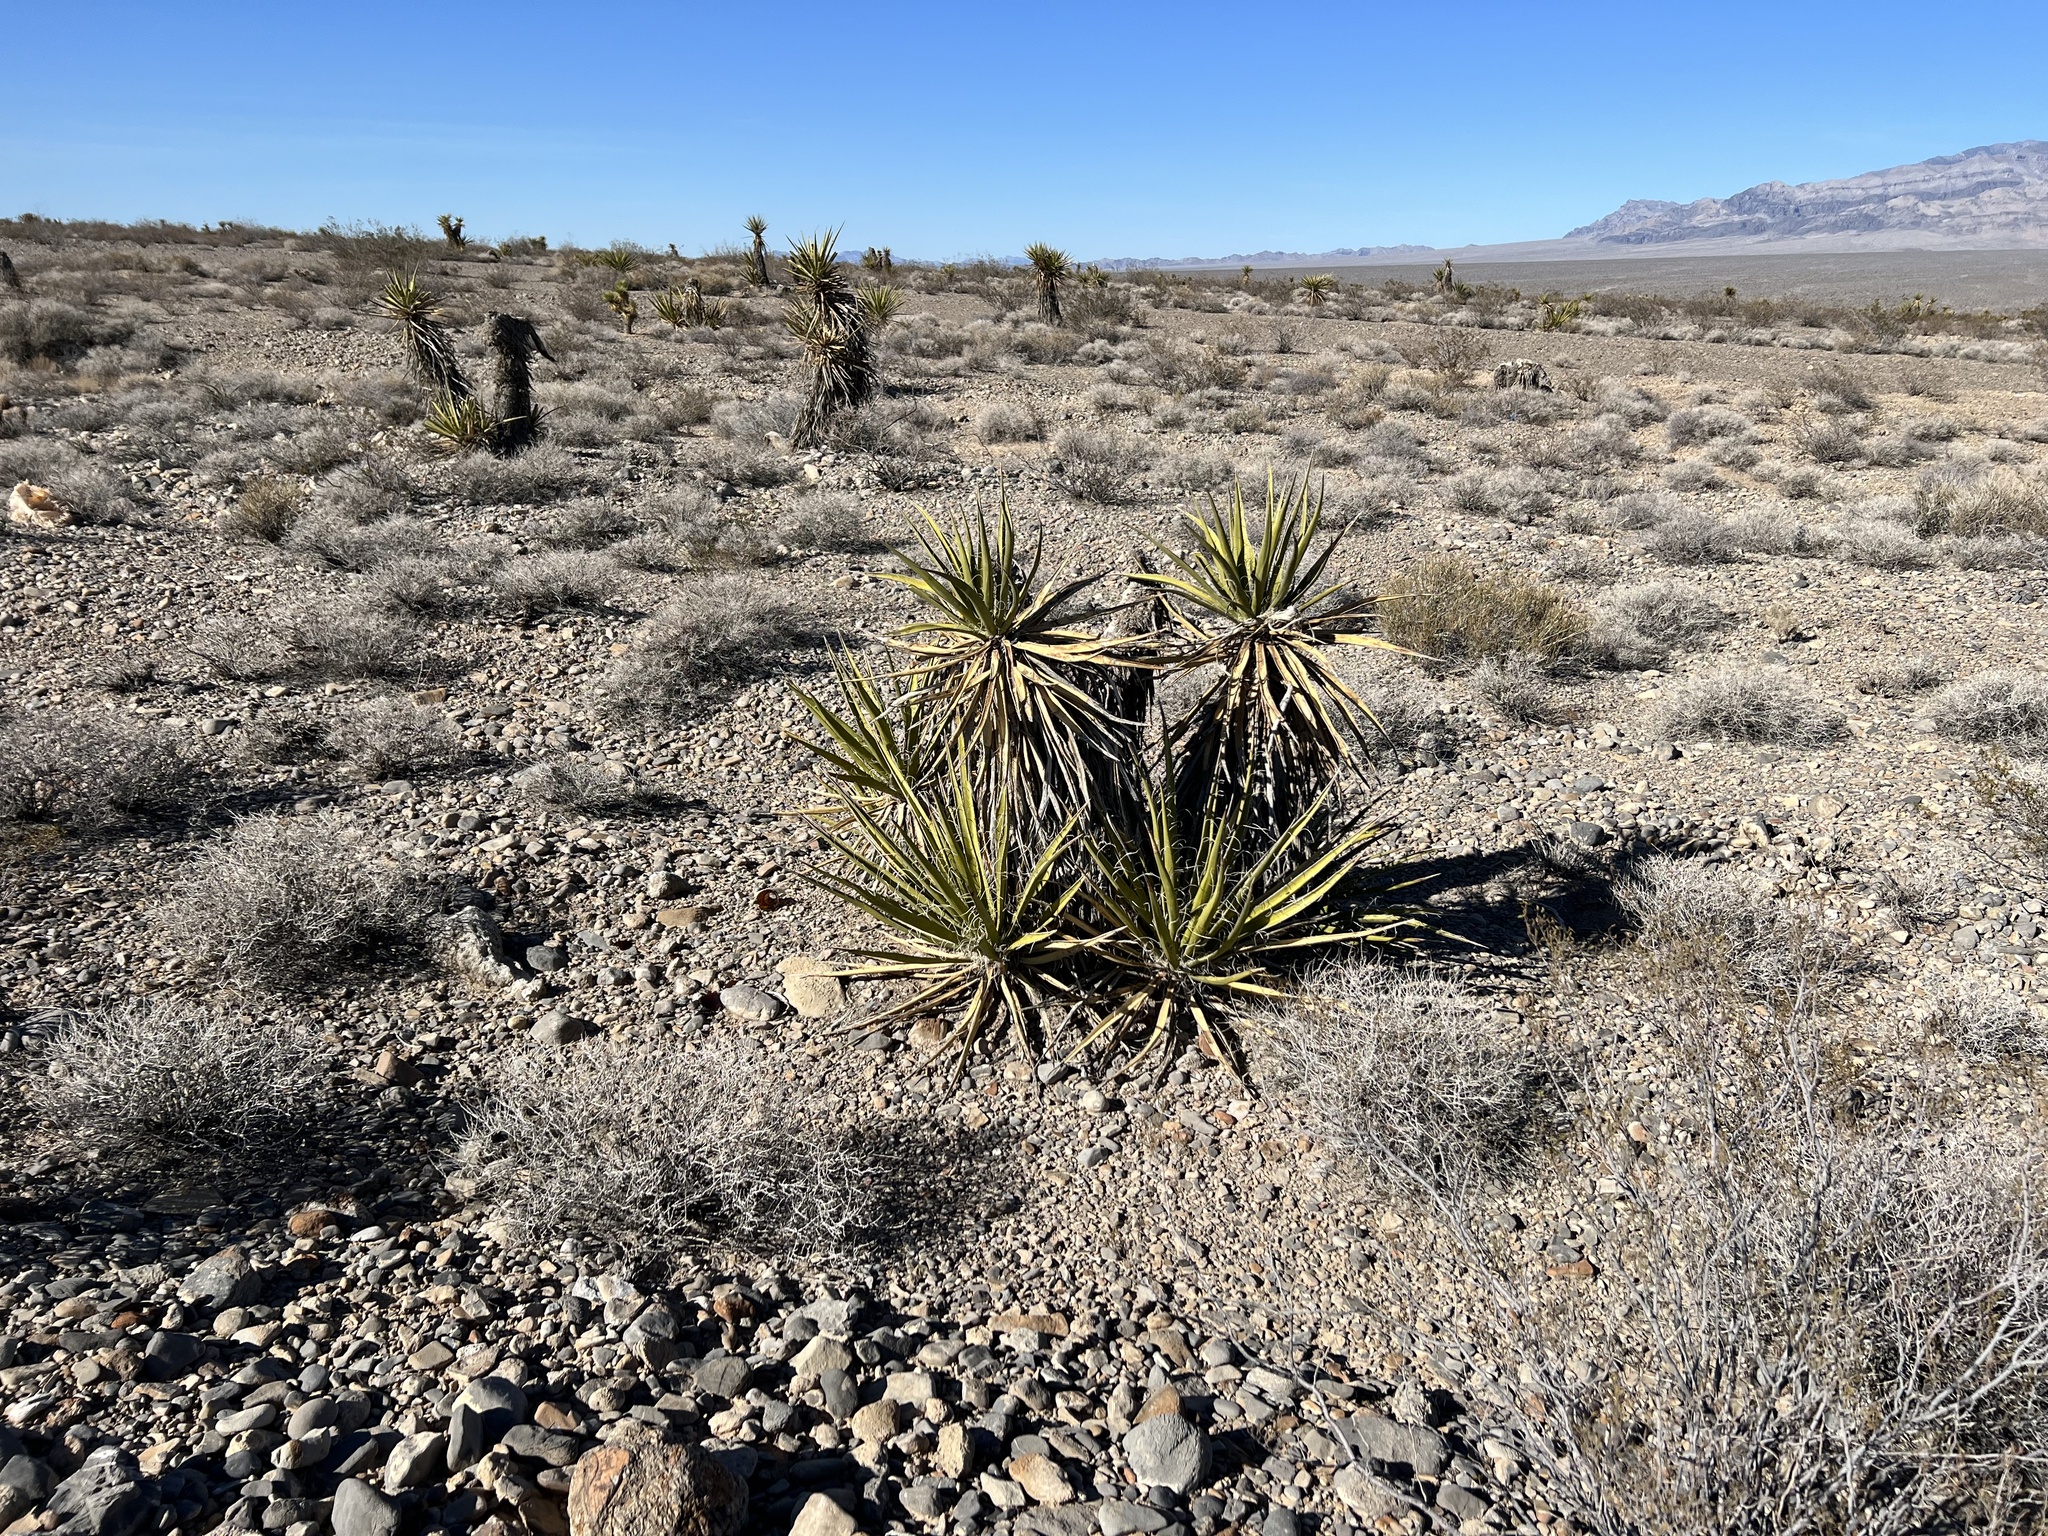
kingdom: Plantae
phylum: Tracheophyta
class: Liliopsida
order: Asparagales
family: Asparagaceae
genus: Yucca
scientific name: Yucca schidigera
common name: Mojave yucca
